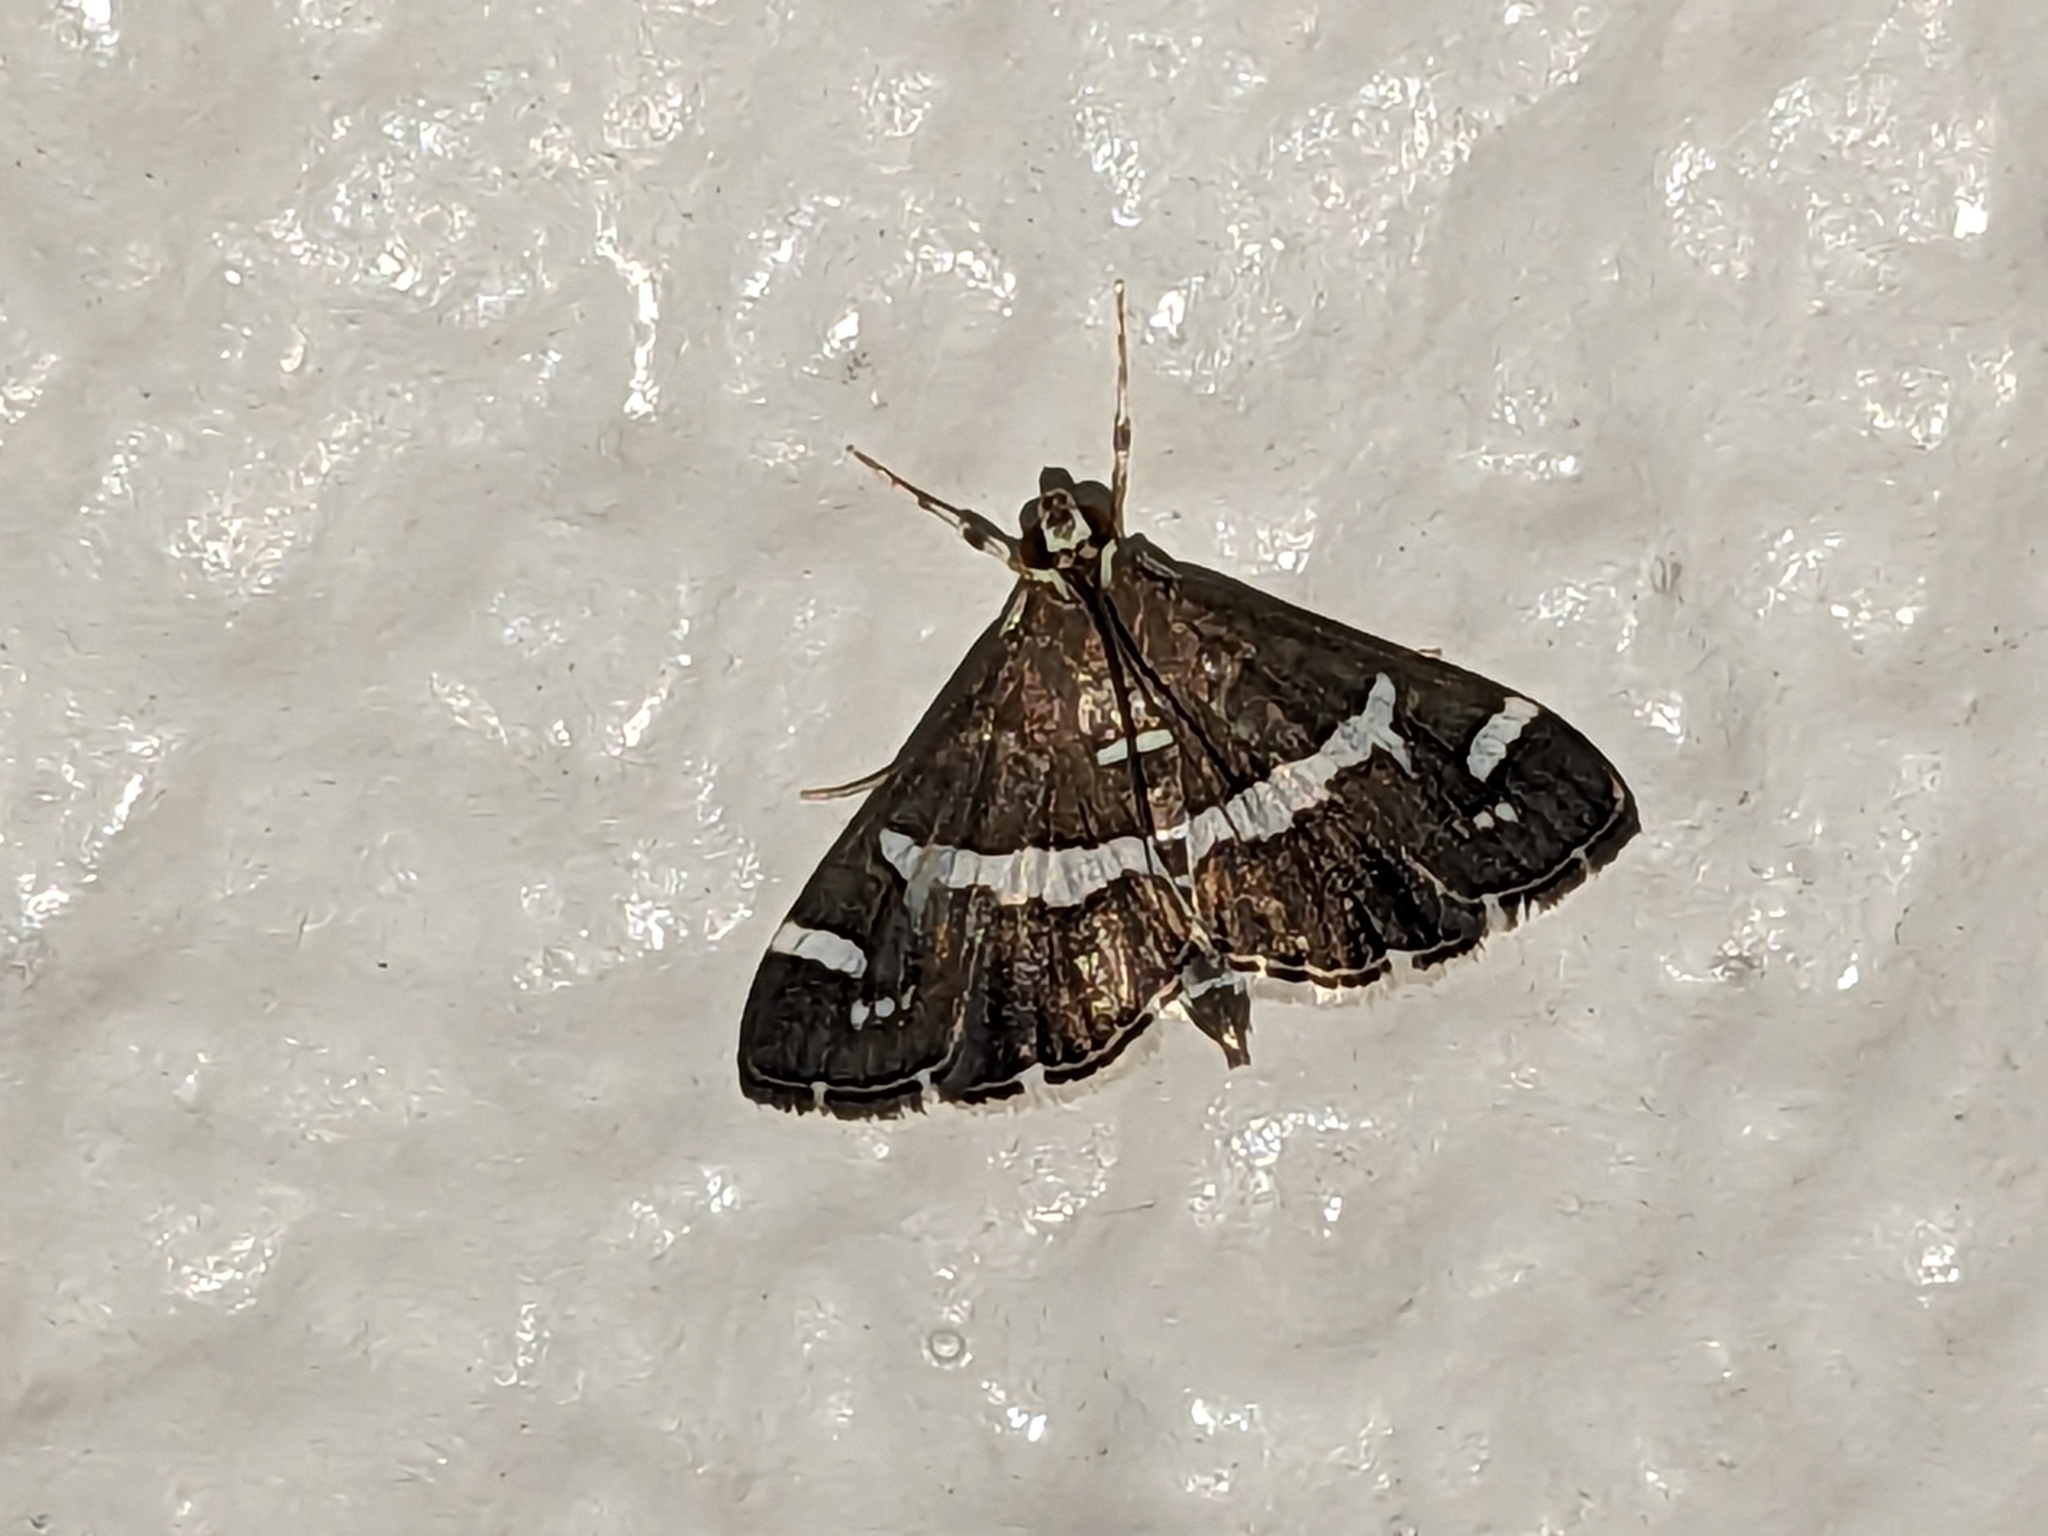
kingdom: Animalia
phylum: Arthropoda
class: Insecta
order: Lepidoptera
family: Crambidae
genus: Spoladea
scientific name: Spoladea recurvalis
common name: Beet webworm moth
